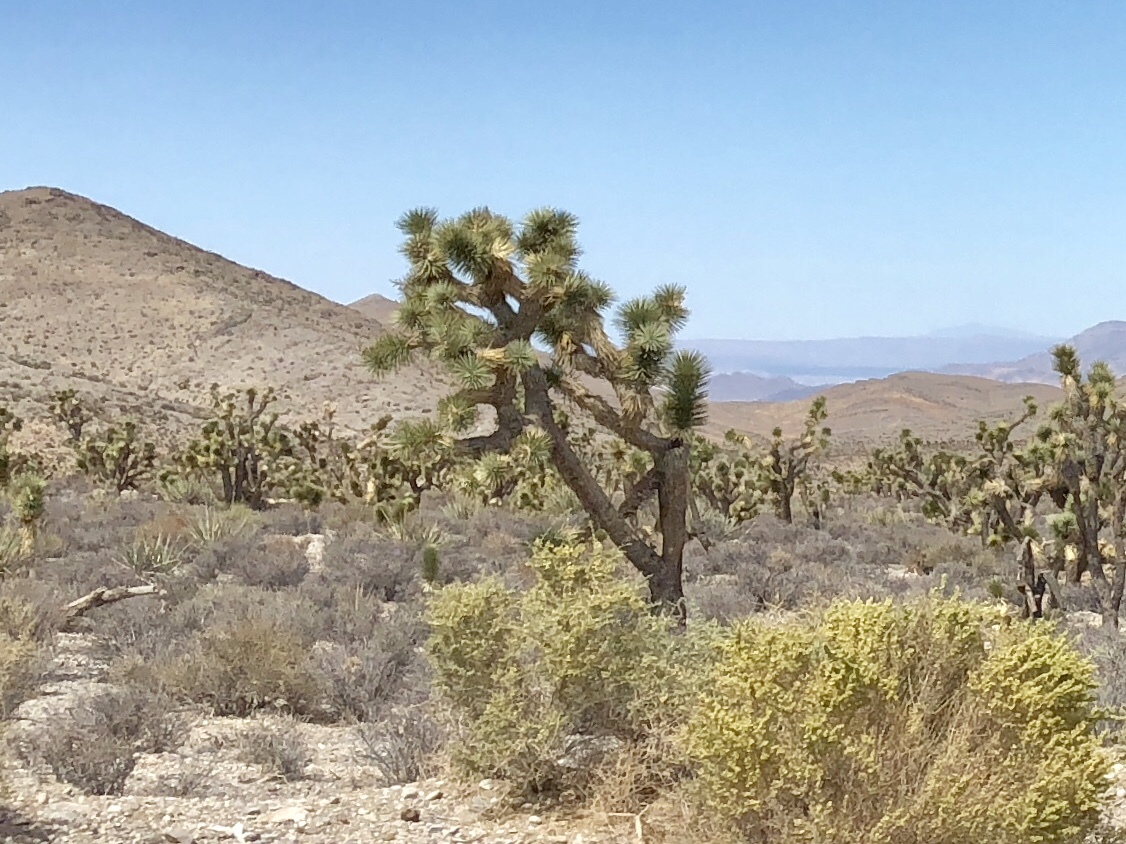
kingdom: Plantae
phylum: Tracheophyta
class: Liliopsida
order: Asparagales
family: Asparagaceae
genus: Yucca
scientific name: Yucca brevifolia
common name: Joshua tree
